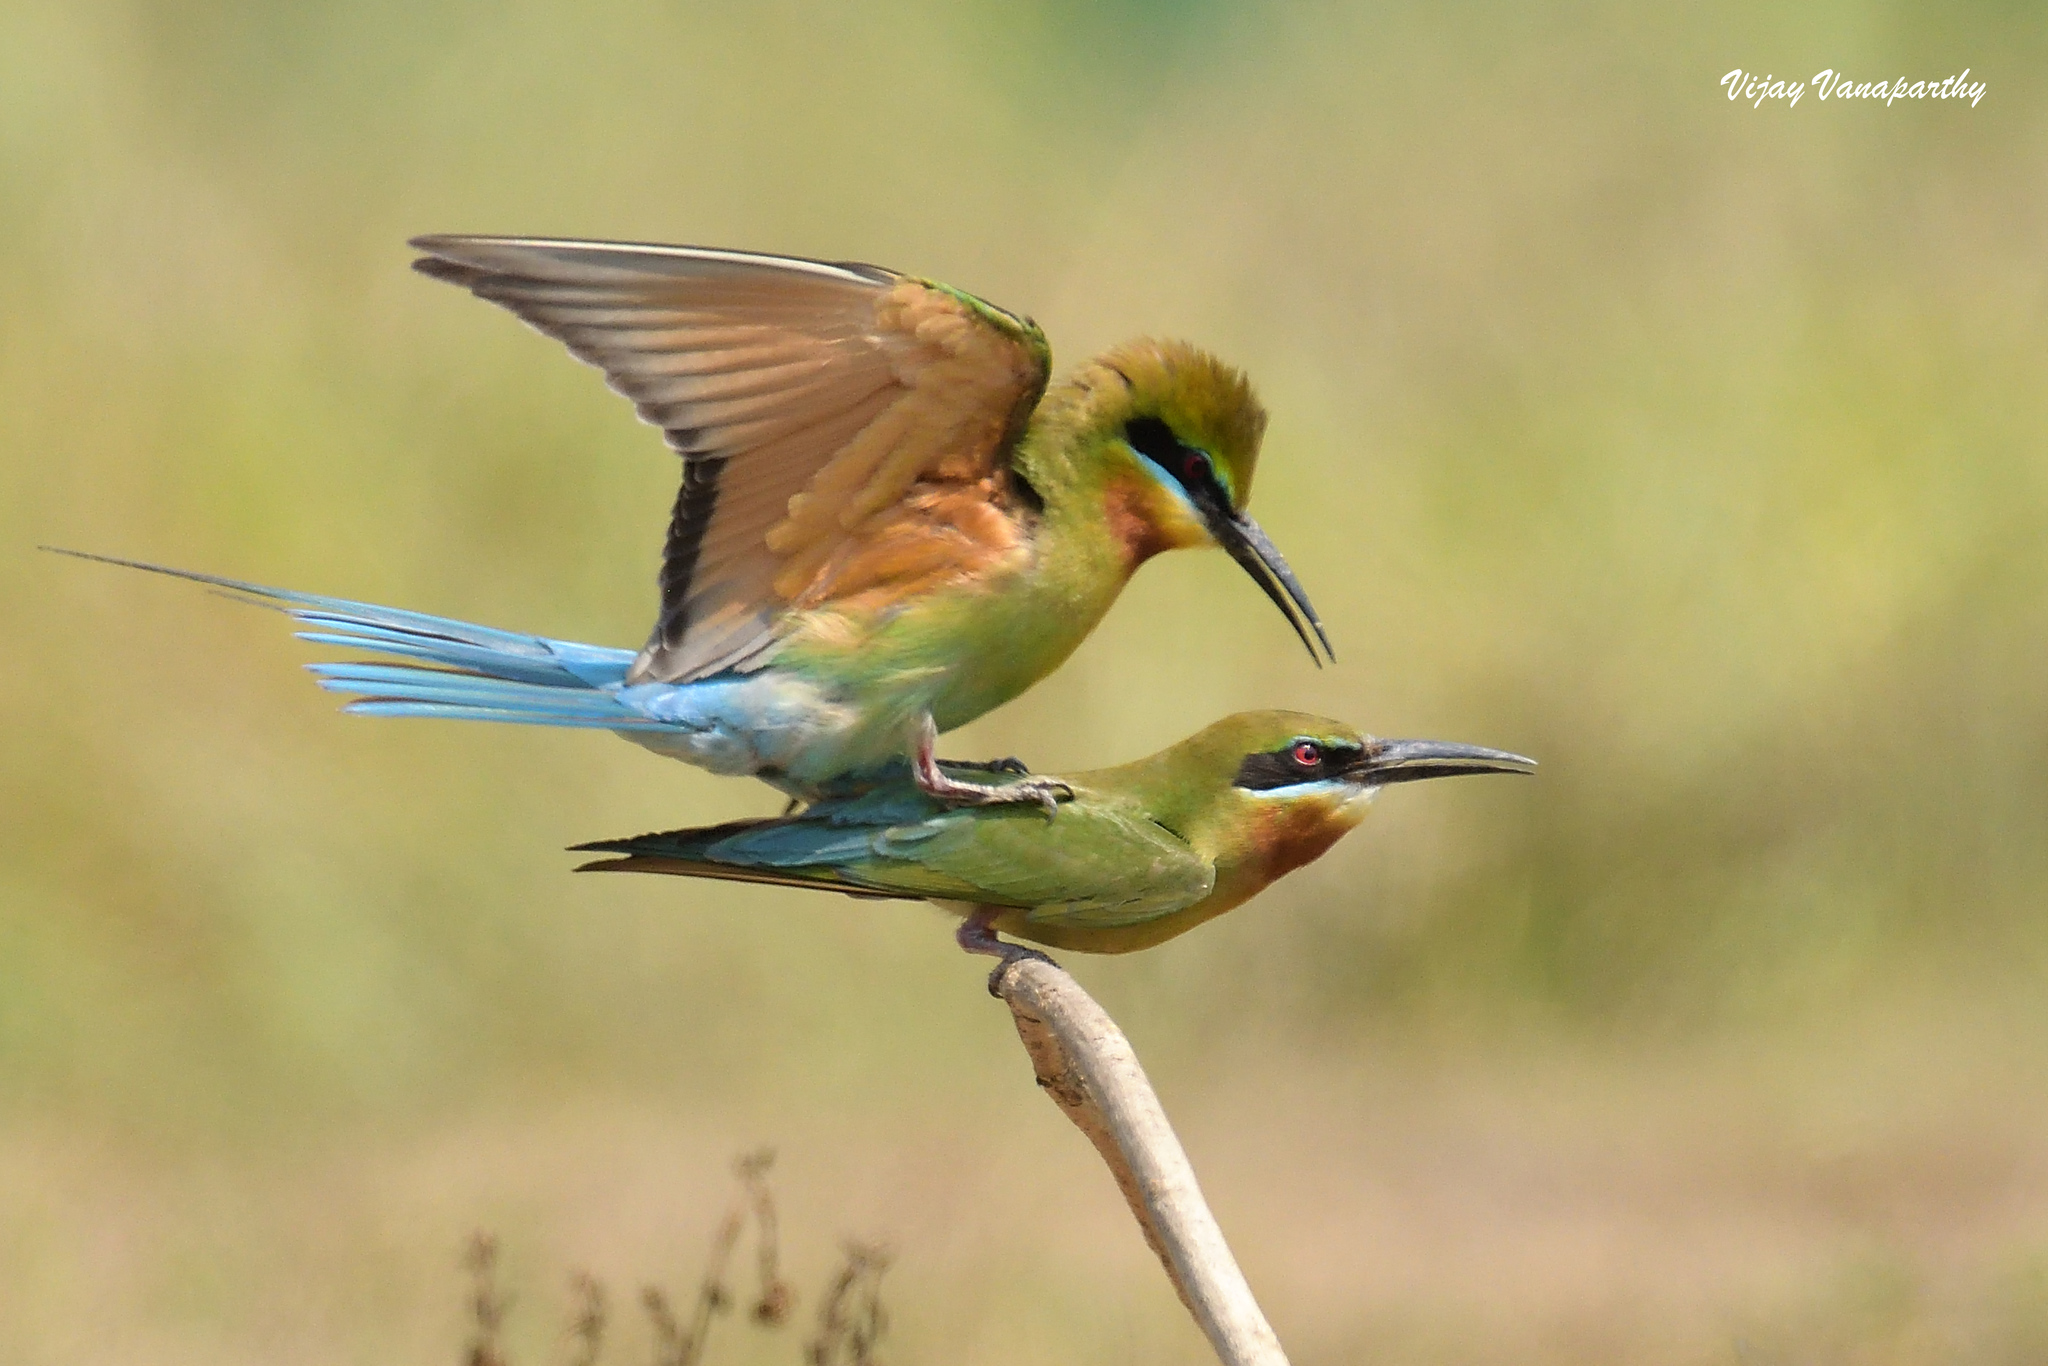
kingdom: Animalia
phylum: Chordata
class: Aves
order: Coraciiformes
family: Meropidae
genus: Merops
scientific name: Merops philippinus
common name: Blue-tailed bee-eater
